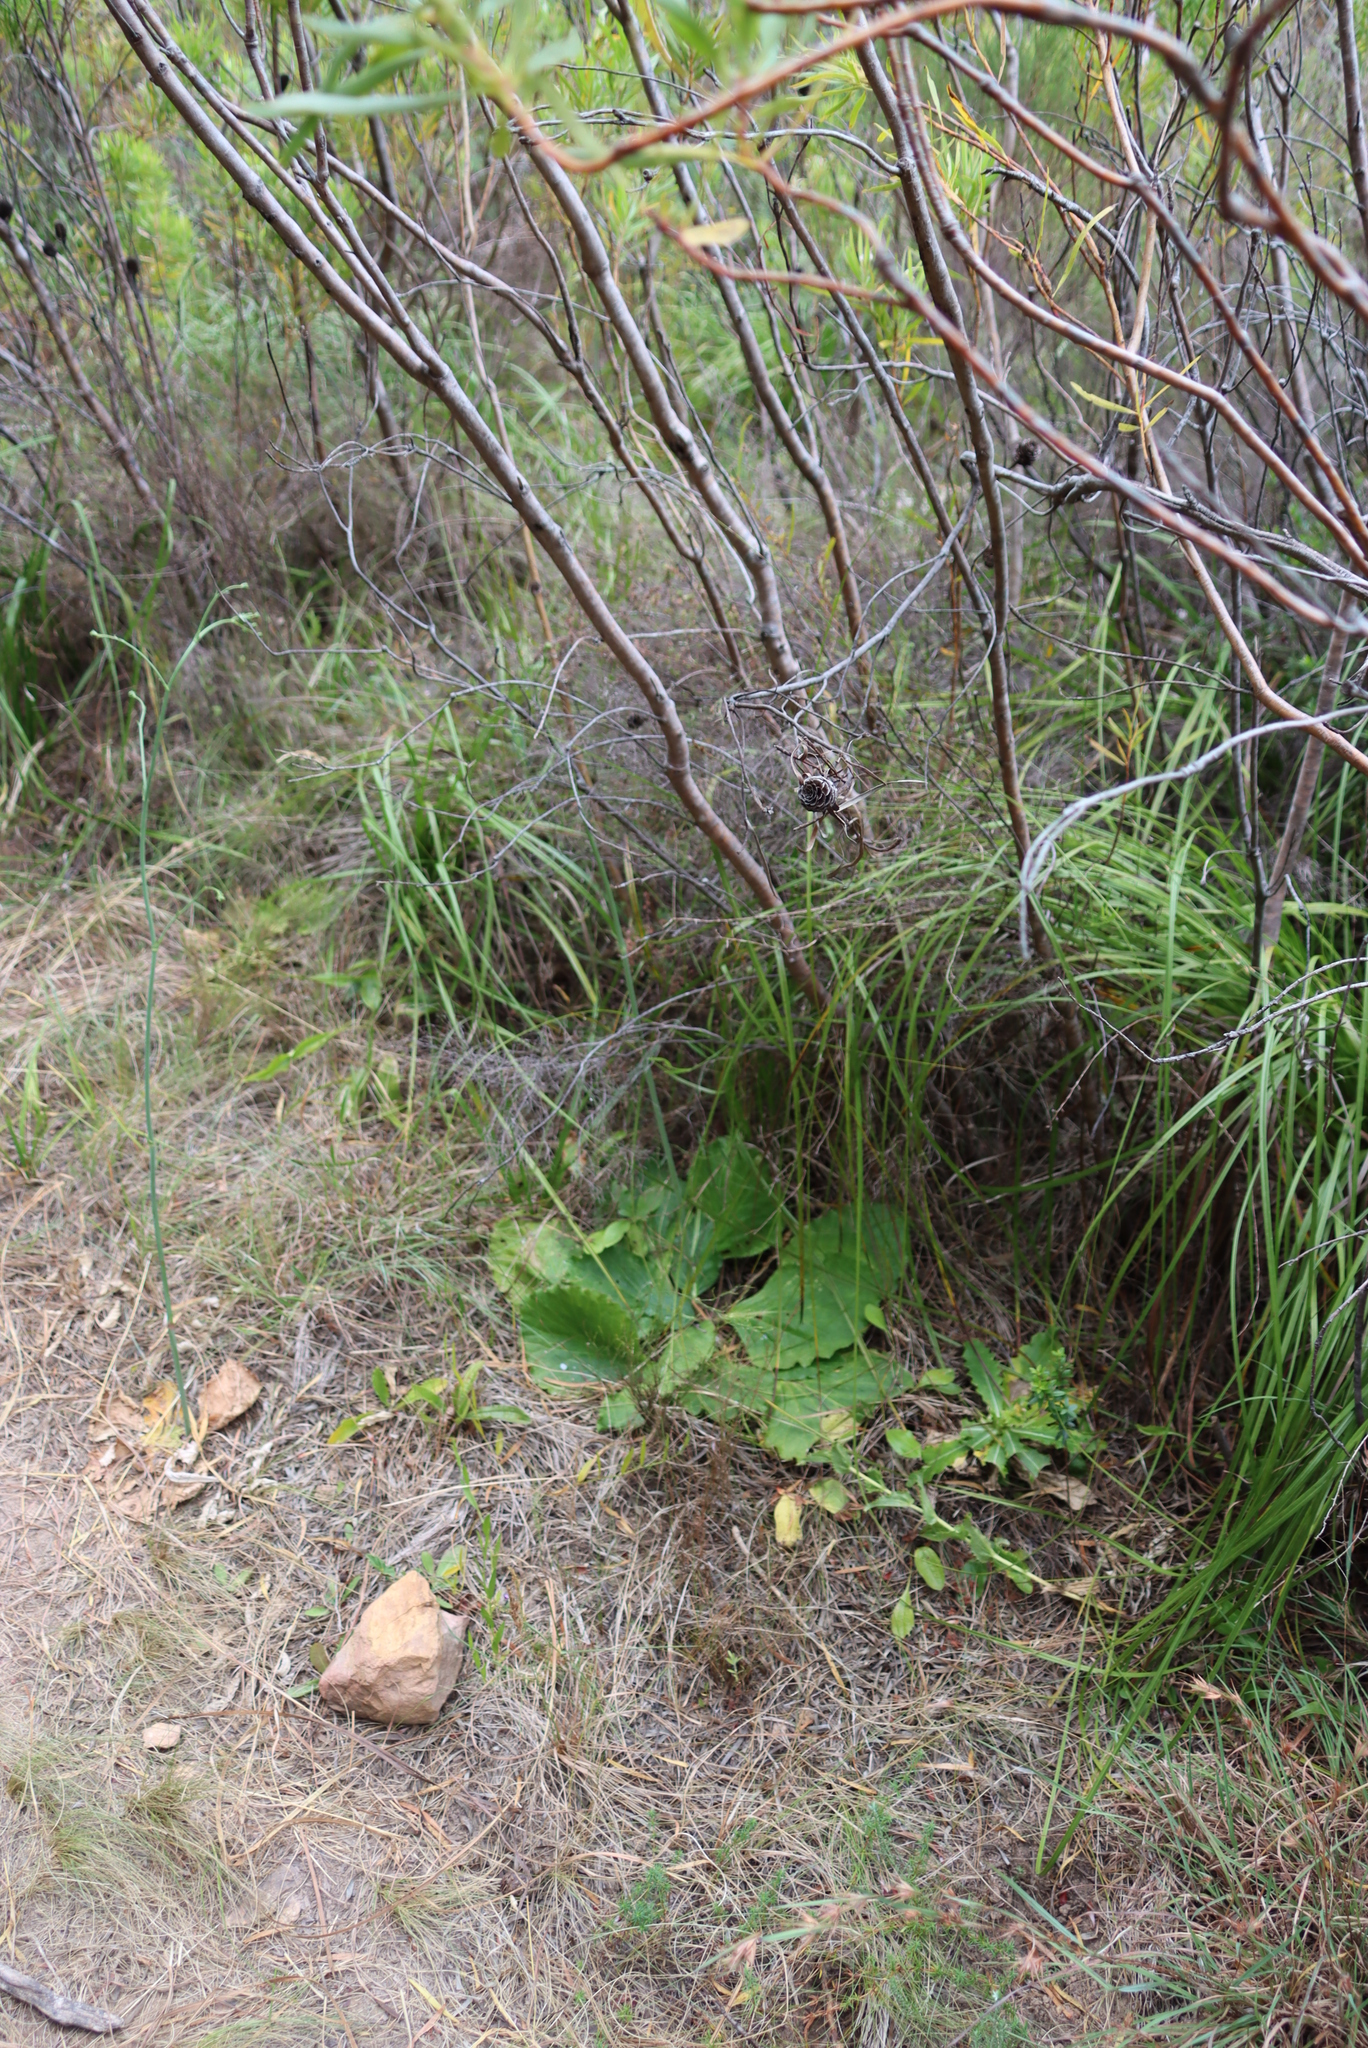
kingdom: Plantae
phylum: Tracheophyta
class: Magnoliopsida
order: Apiales
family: Apiaceae
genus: Lichtensteinia
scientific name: Lichtensteinia latifolia
